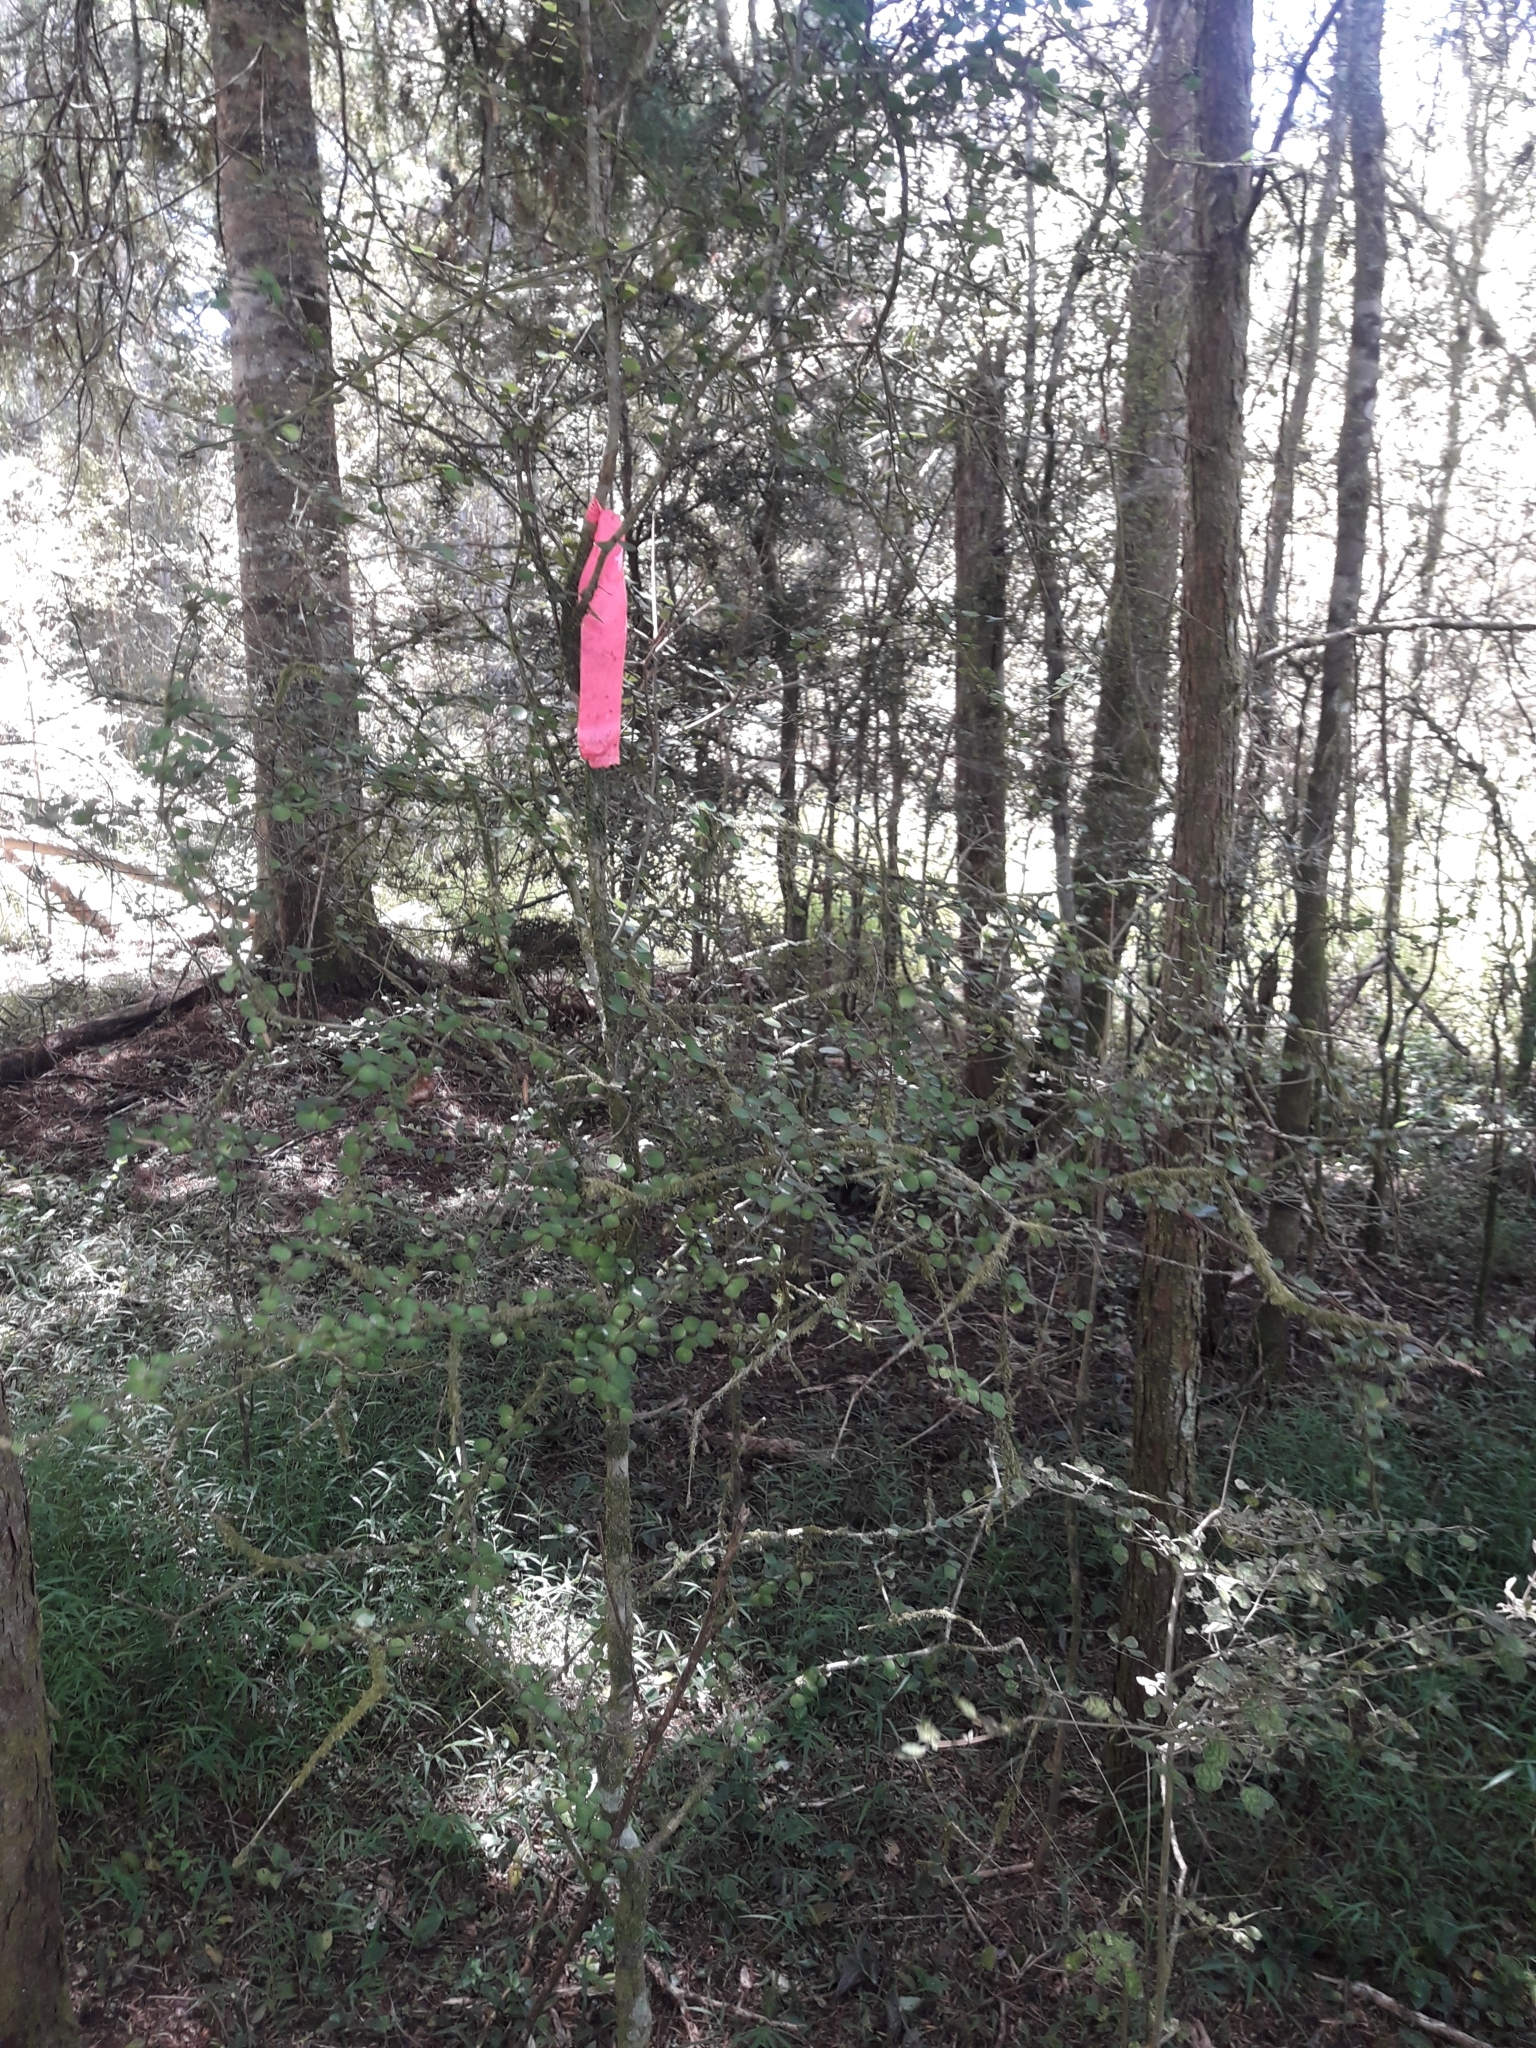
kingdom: Plantae
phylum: Tracheophyta
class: Magnoliopsida
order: Apiales
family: Pittosporaceae
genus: Pittosporum
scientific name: Pittosporum obcordatum
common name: Heart-leaved kohuhu
